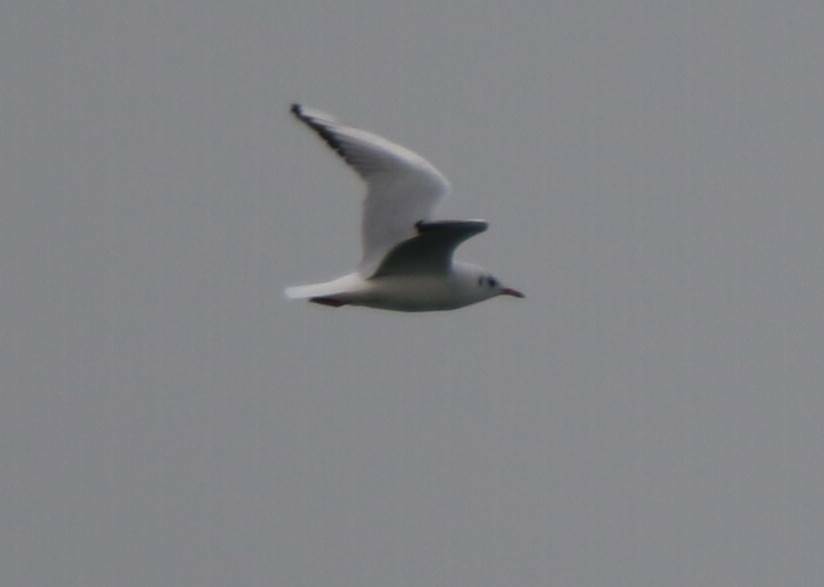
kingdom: Animalia
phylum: Chordata
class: Aves
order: Charadriiformes
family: Laridae
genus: Chroicocephalus
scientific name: Chroicocephalus ridibundus
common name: Black-headed gull
